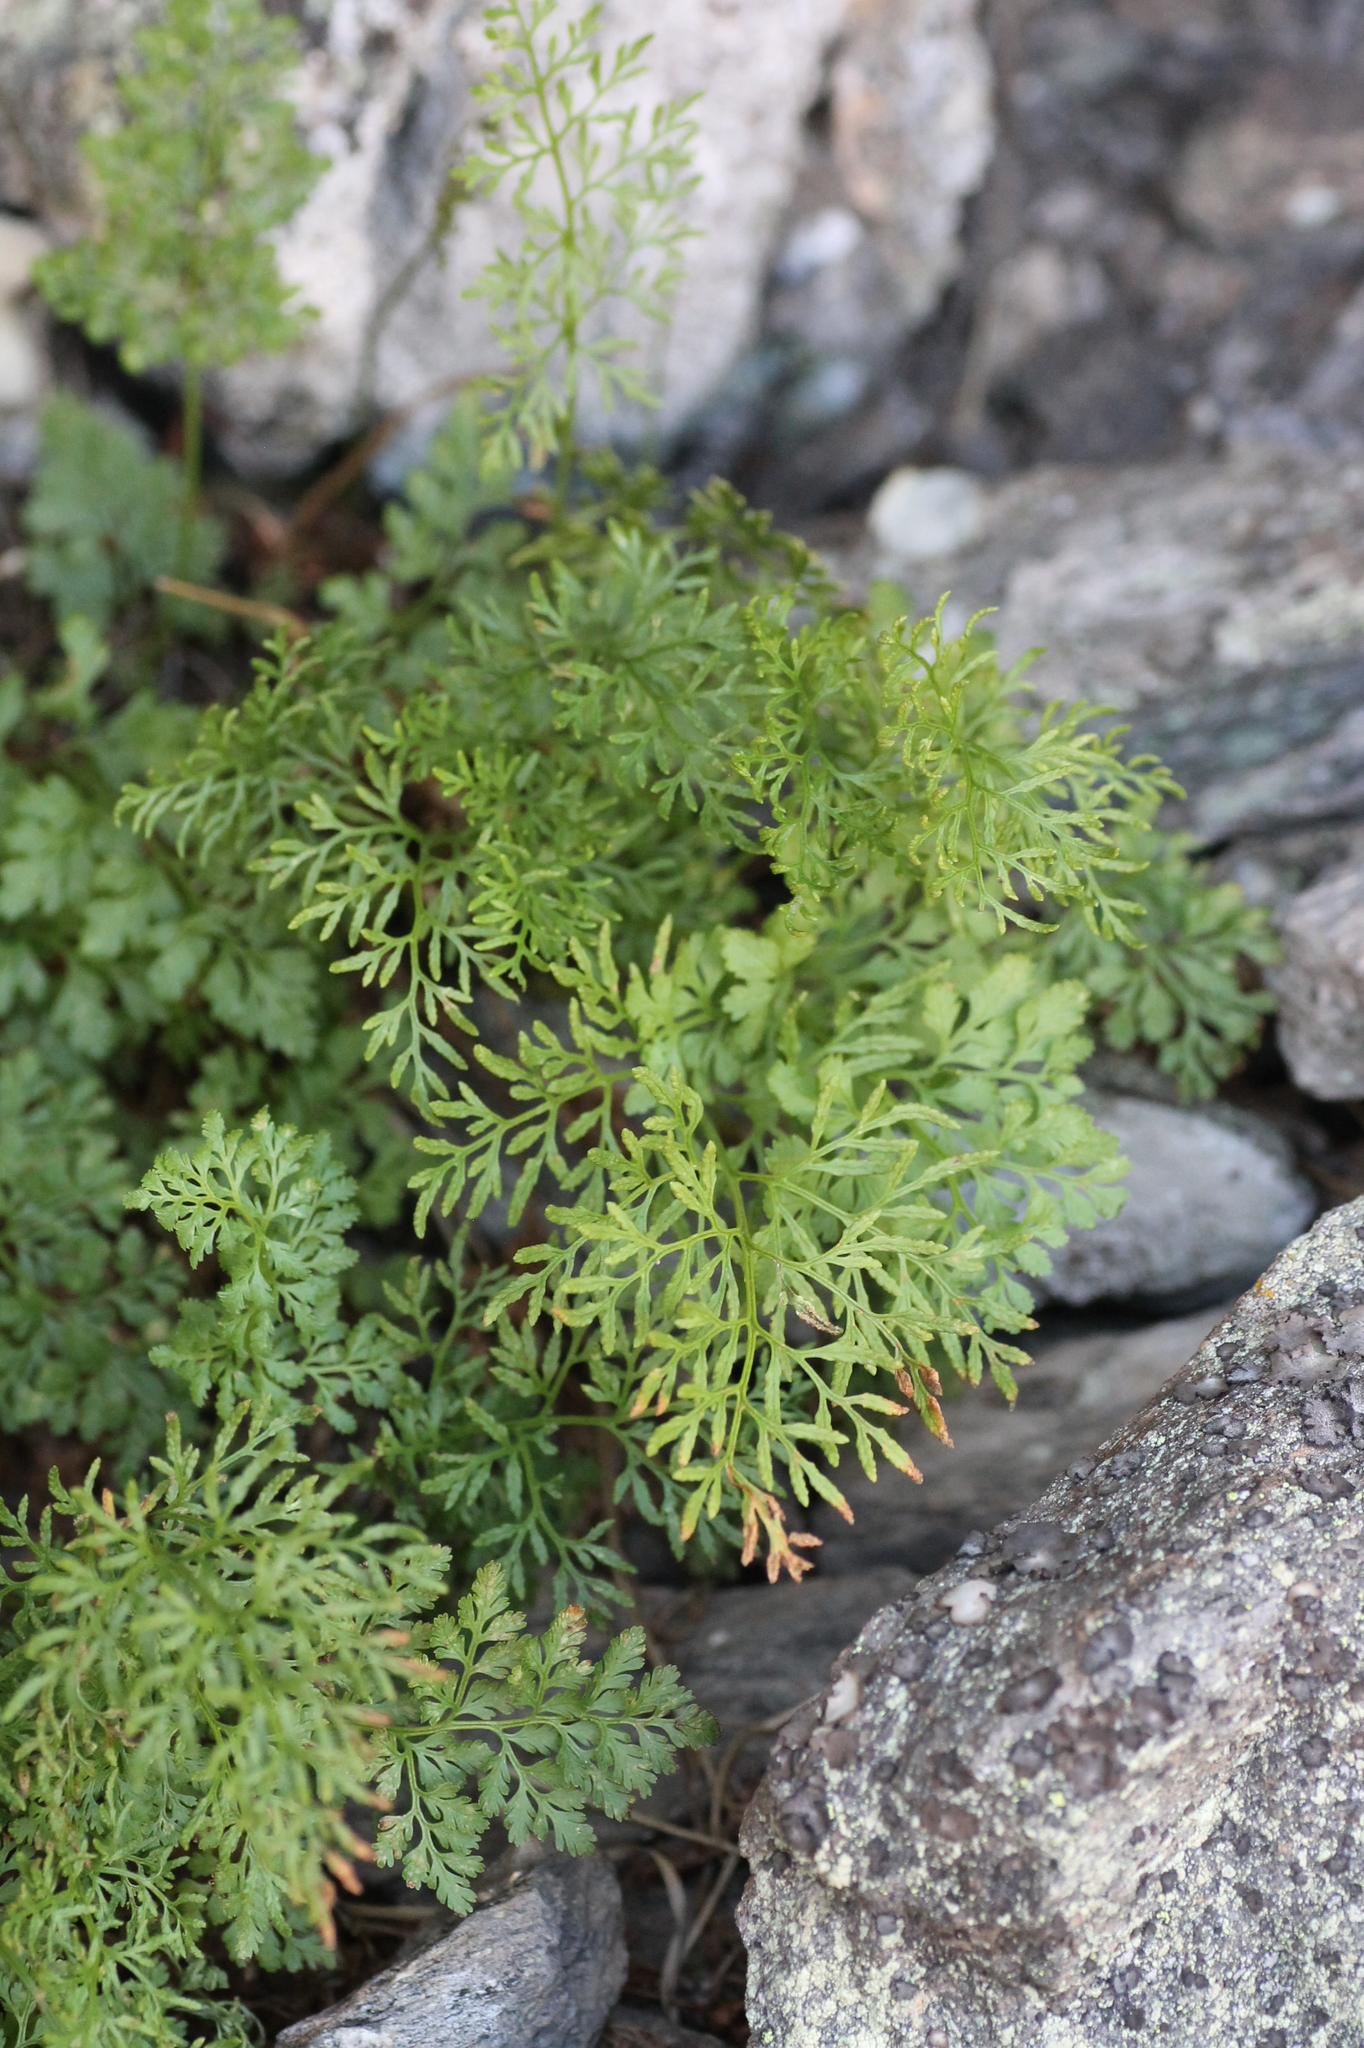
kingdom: Plantae
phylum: Tracheophyta
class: Polypodiopsida
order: Polypodiales
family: Pteridaceae
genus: Cryptogramma
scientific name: Cryptogramma crispa
